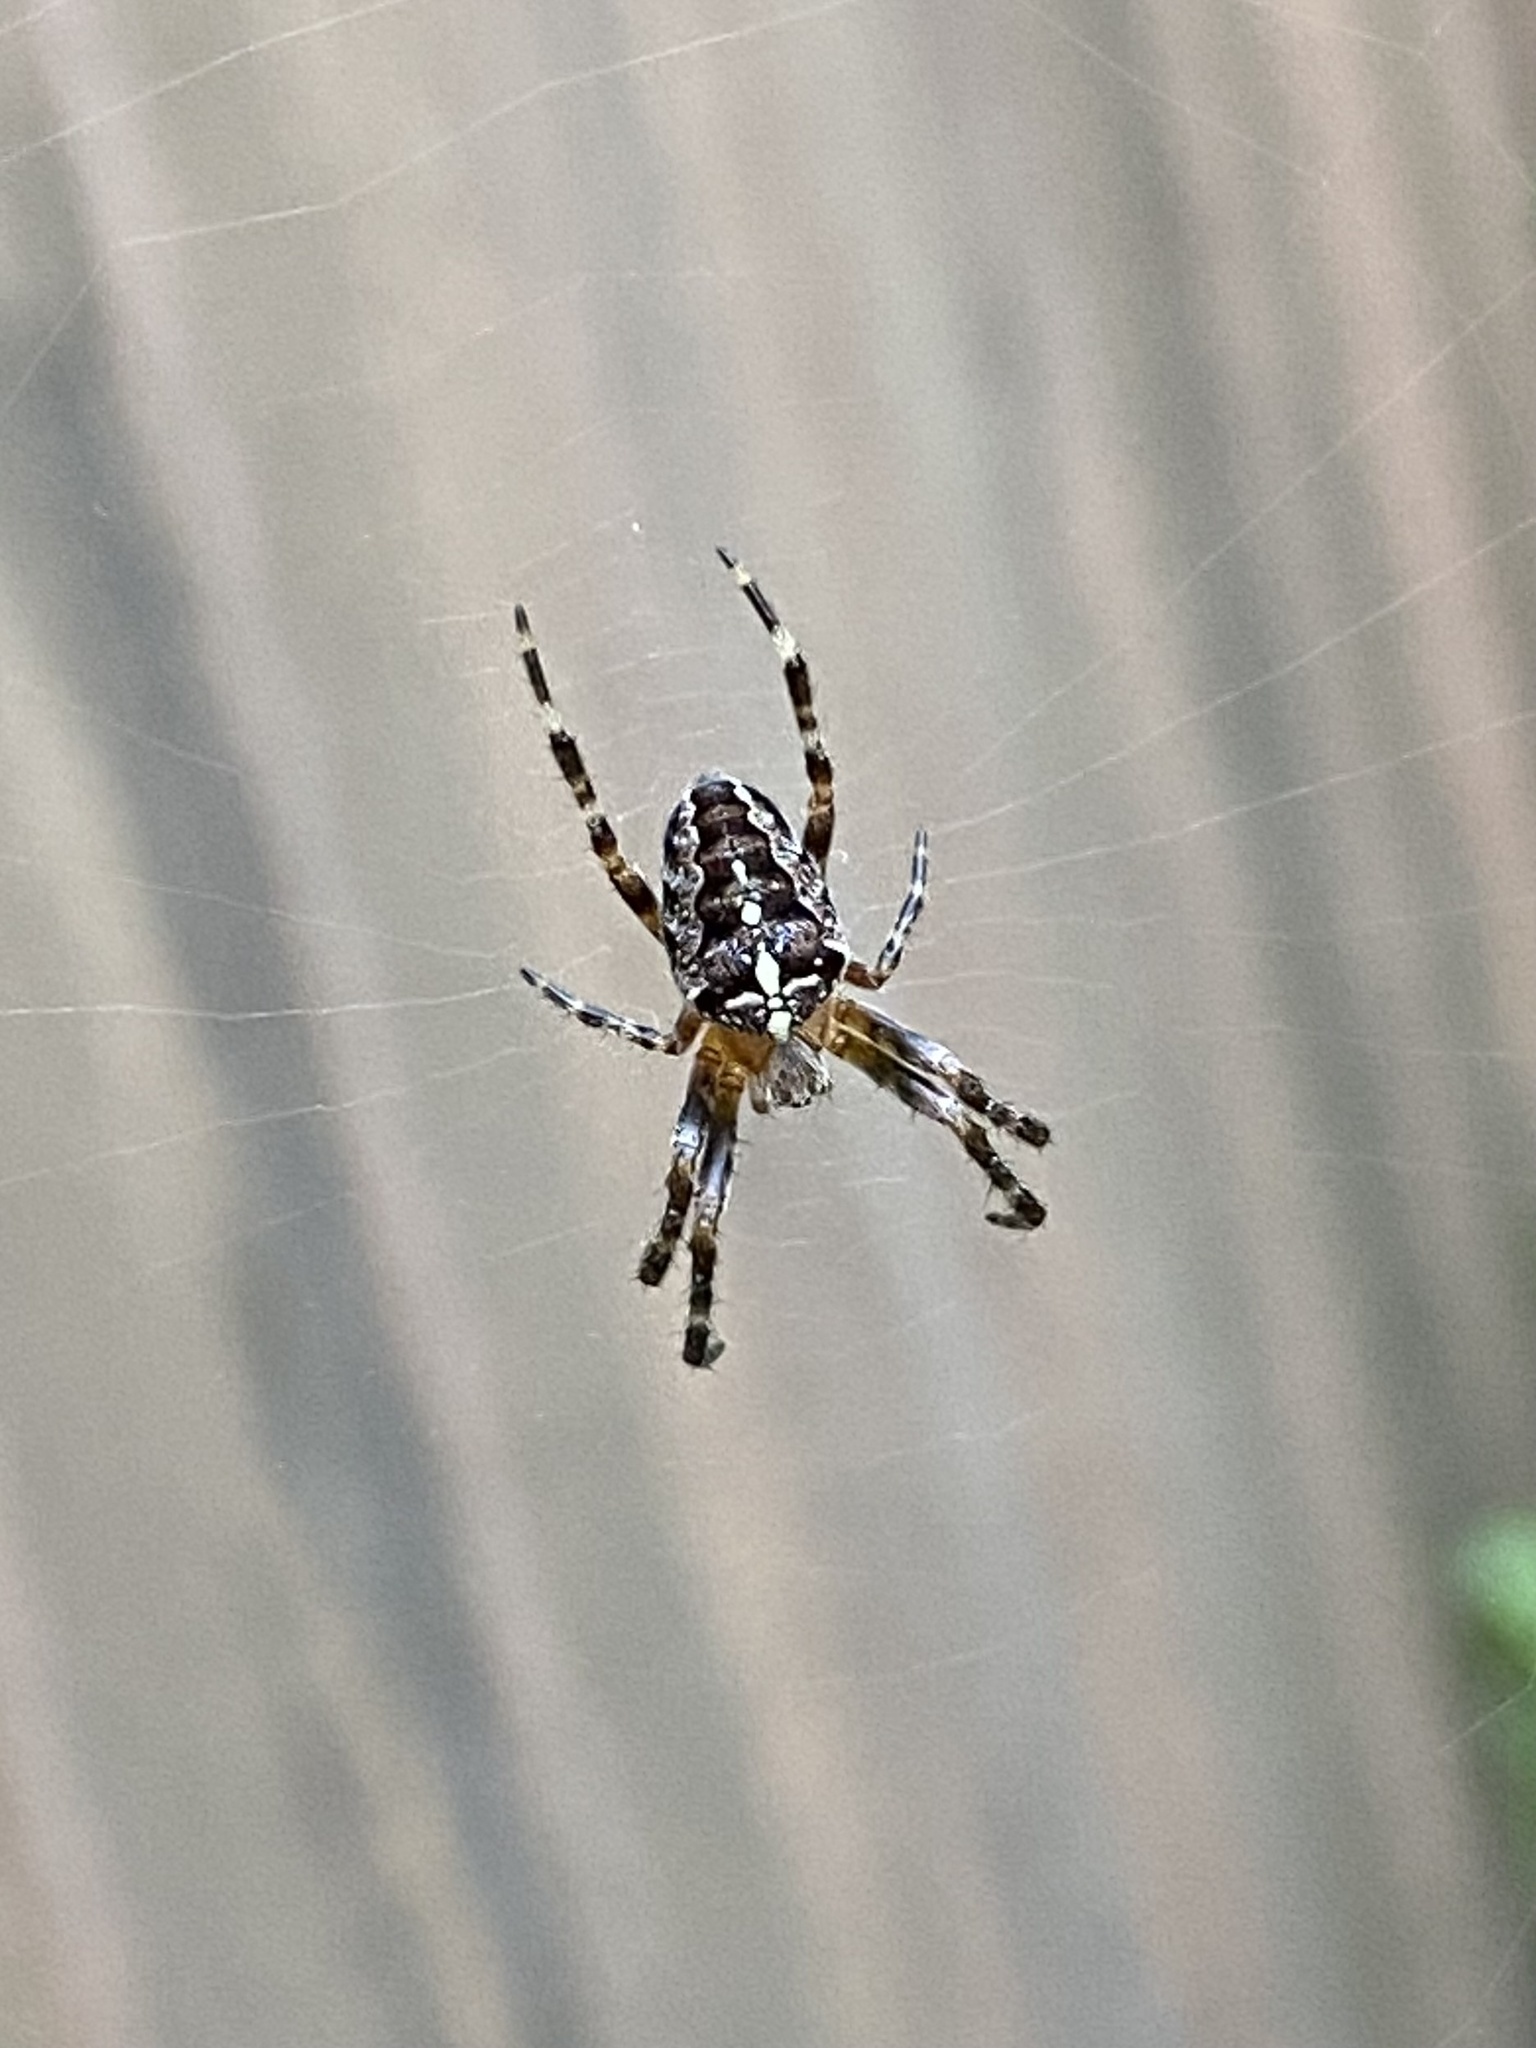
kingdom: Animalia
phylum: Arthropoda
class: Arachnida
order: Araneae
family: Araneidae
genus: Araneus
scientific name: Araneus diadematus
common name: Cross orbweaver
